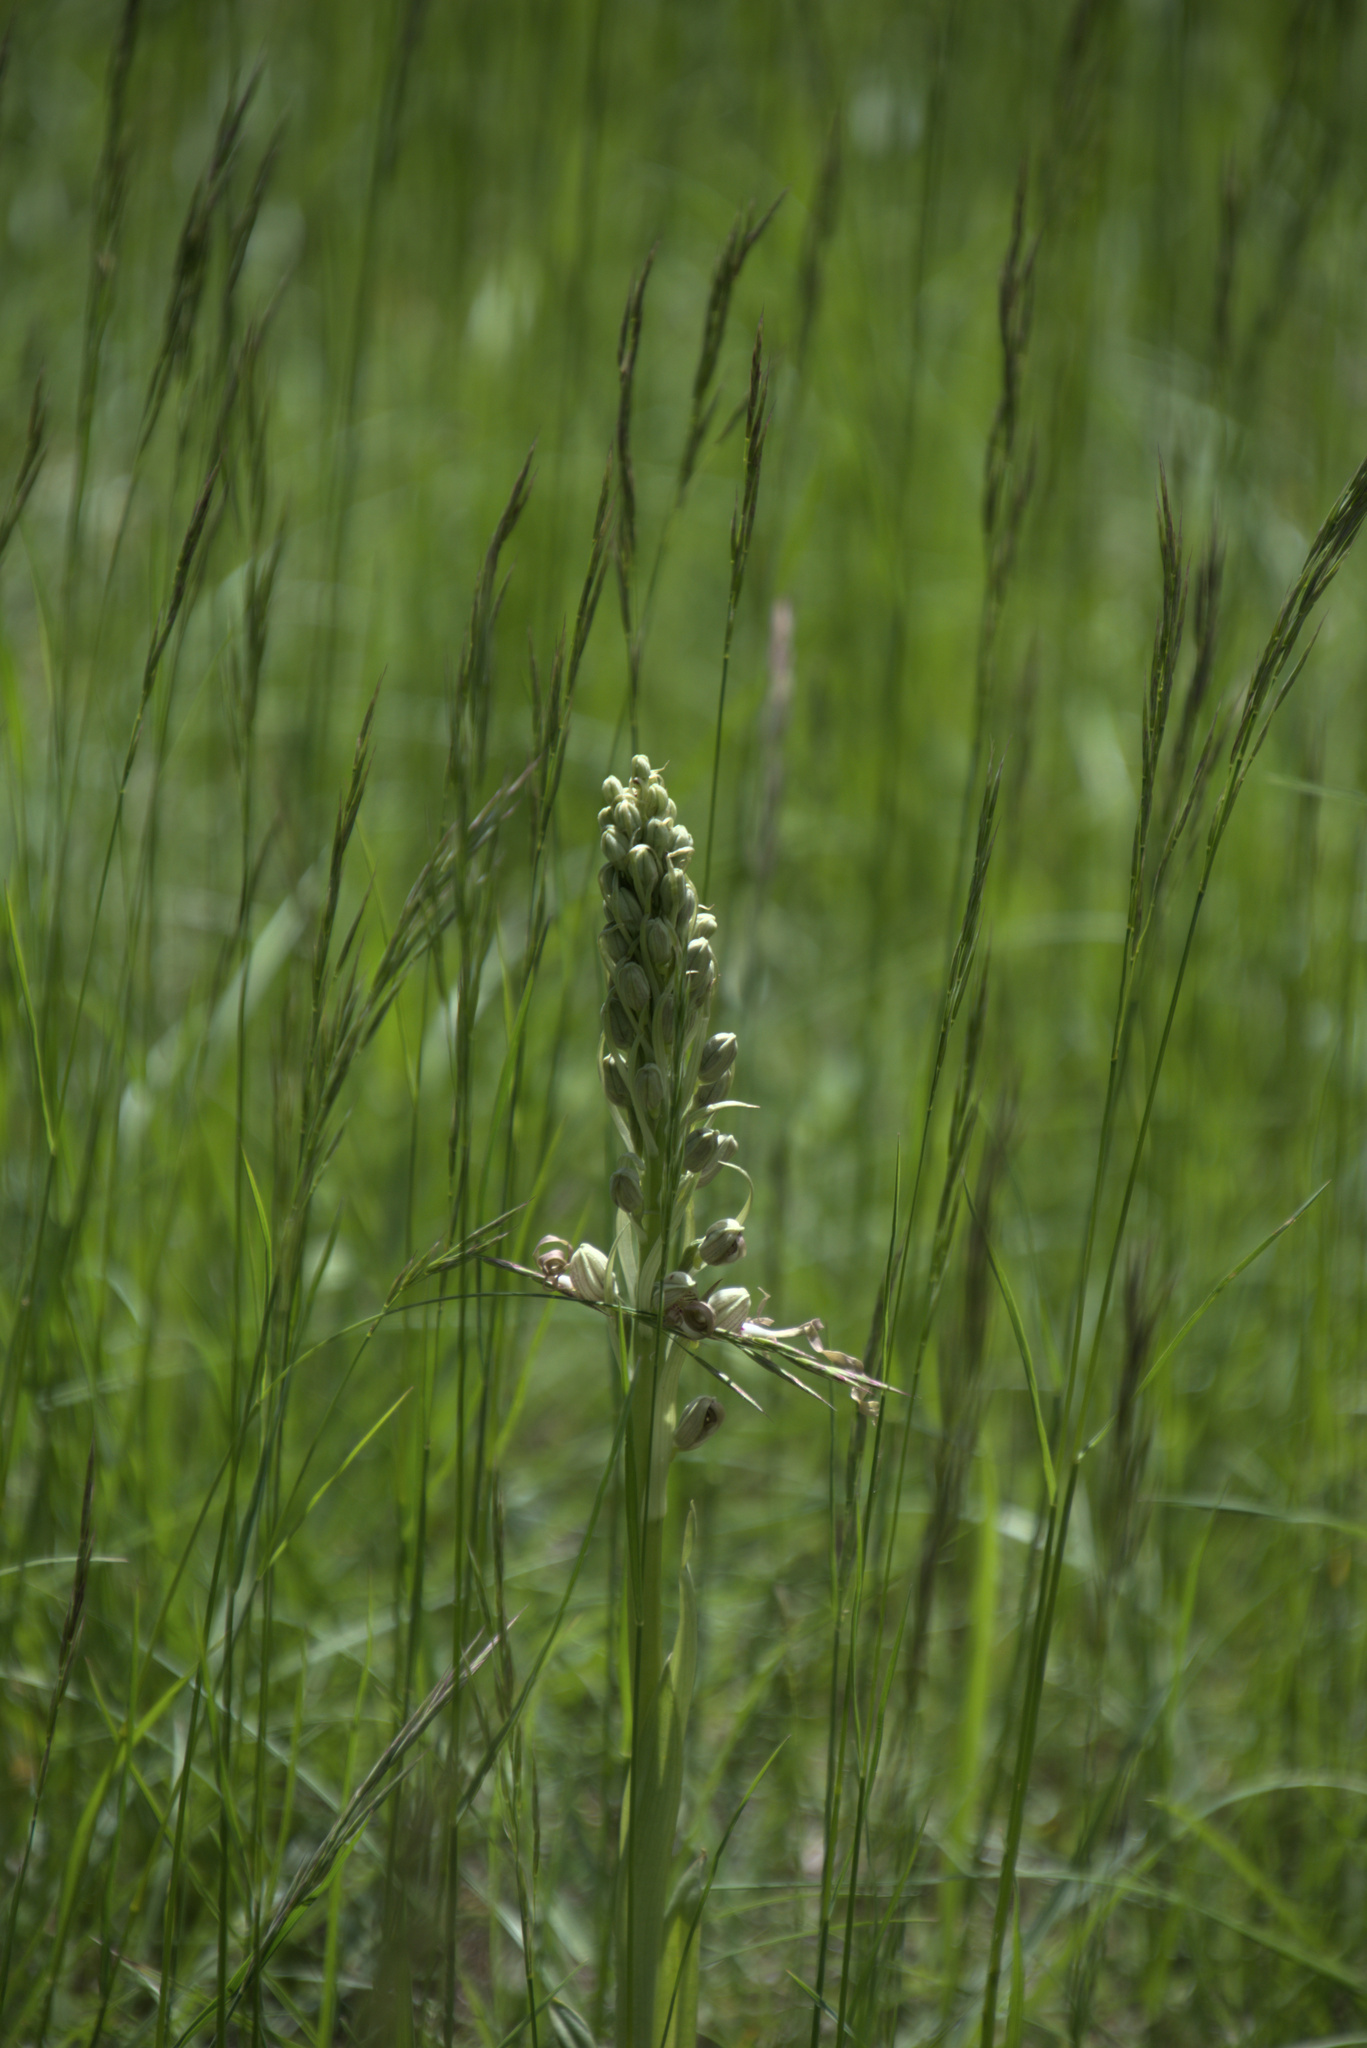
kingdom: Plantae
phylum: Tracheophyta
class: Liliopsida
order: Asparagales
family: Orchidaceae
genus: Himantoglossum
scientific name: Himantoglossum hircinum
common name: Lizard orchid
